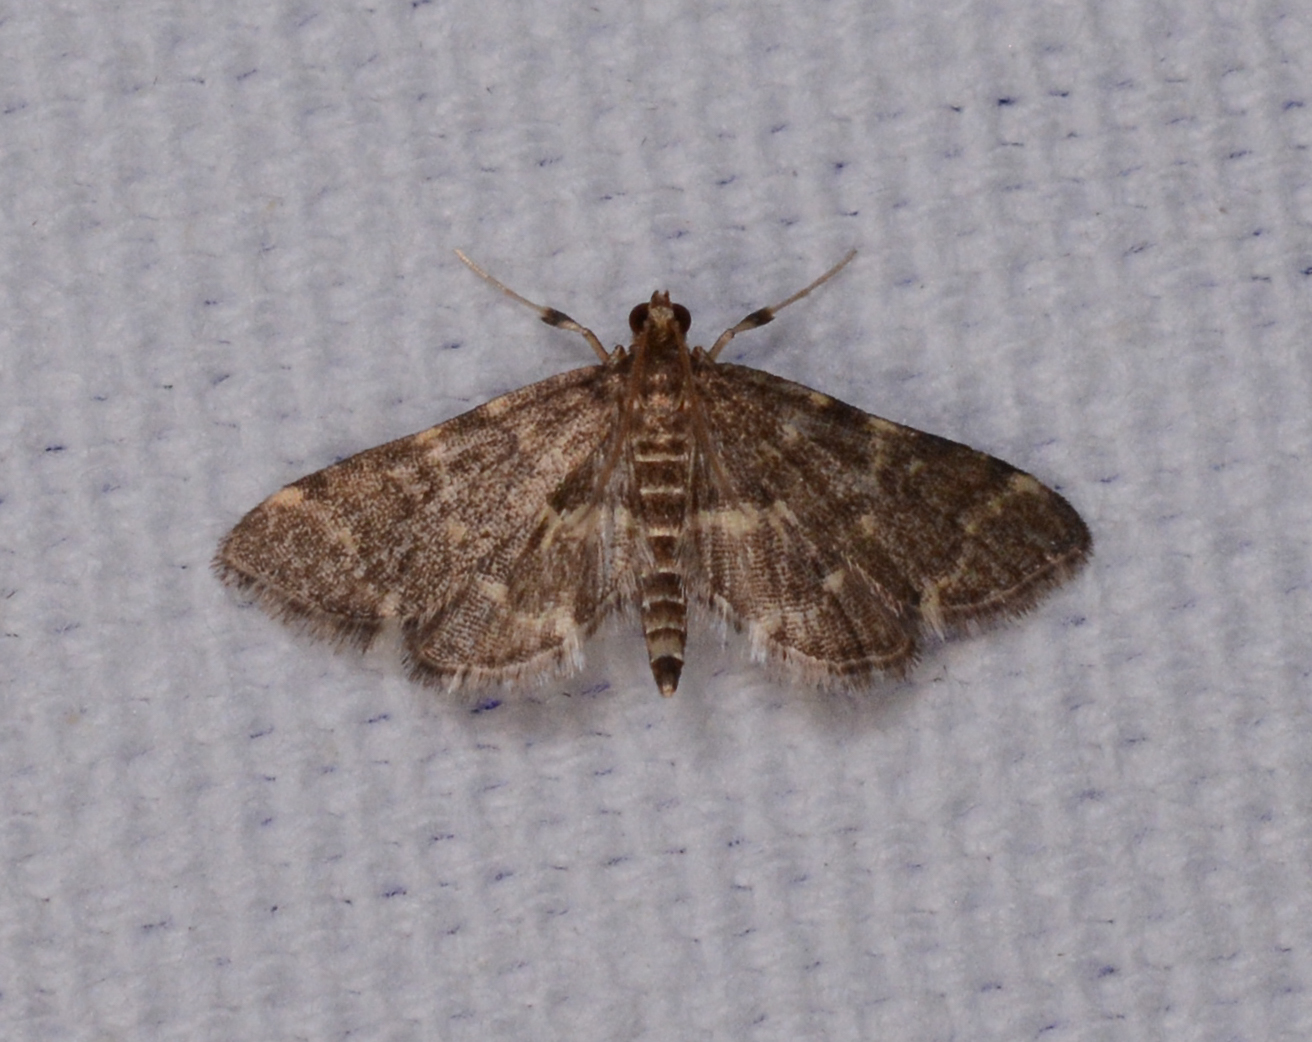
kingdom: Animalia
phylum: Arthropoda
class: Insecta
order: Lepidoptera
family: Crambidae
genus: Anageshna
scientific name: Anageshna primordialis
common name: Yellow-spotted webworm moth
